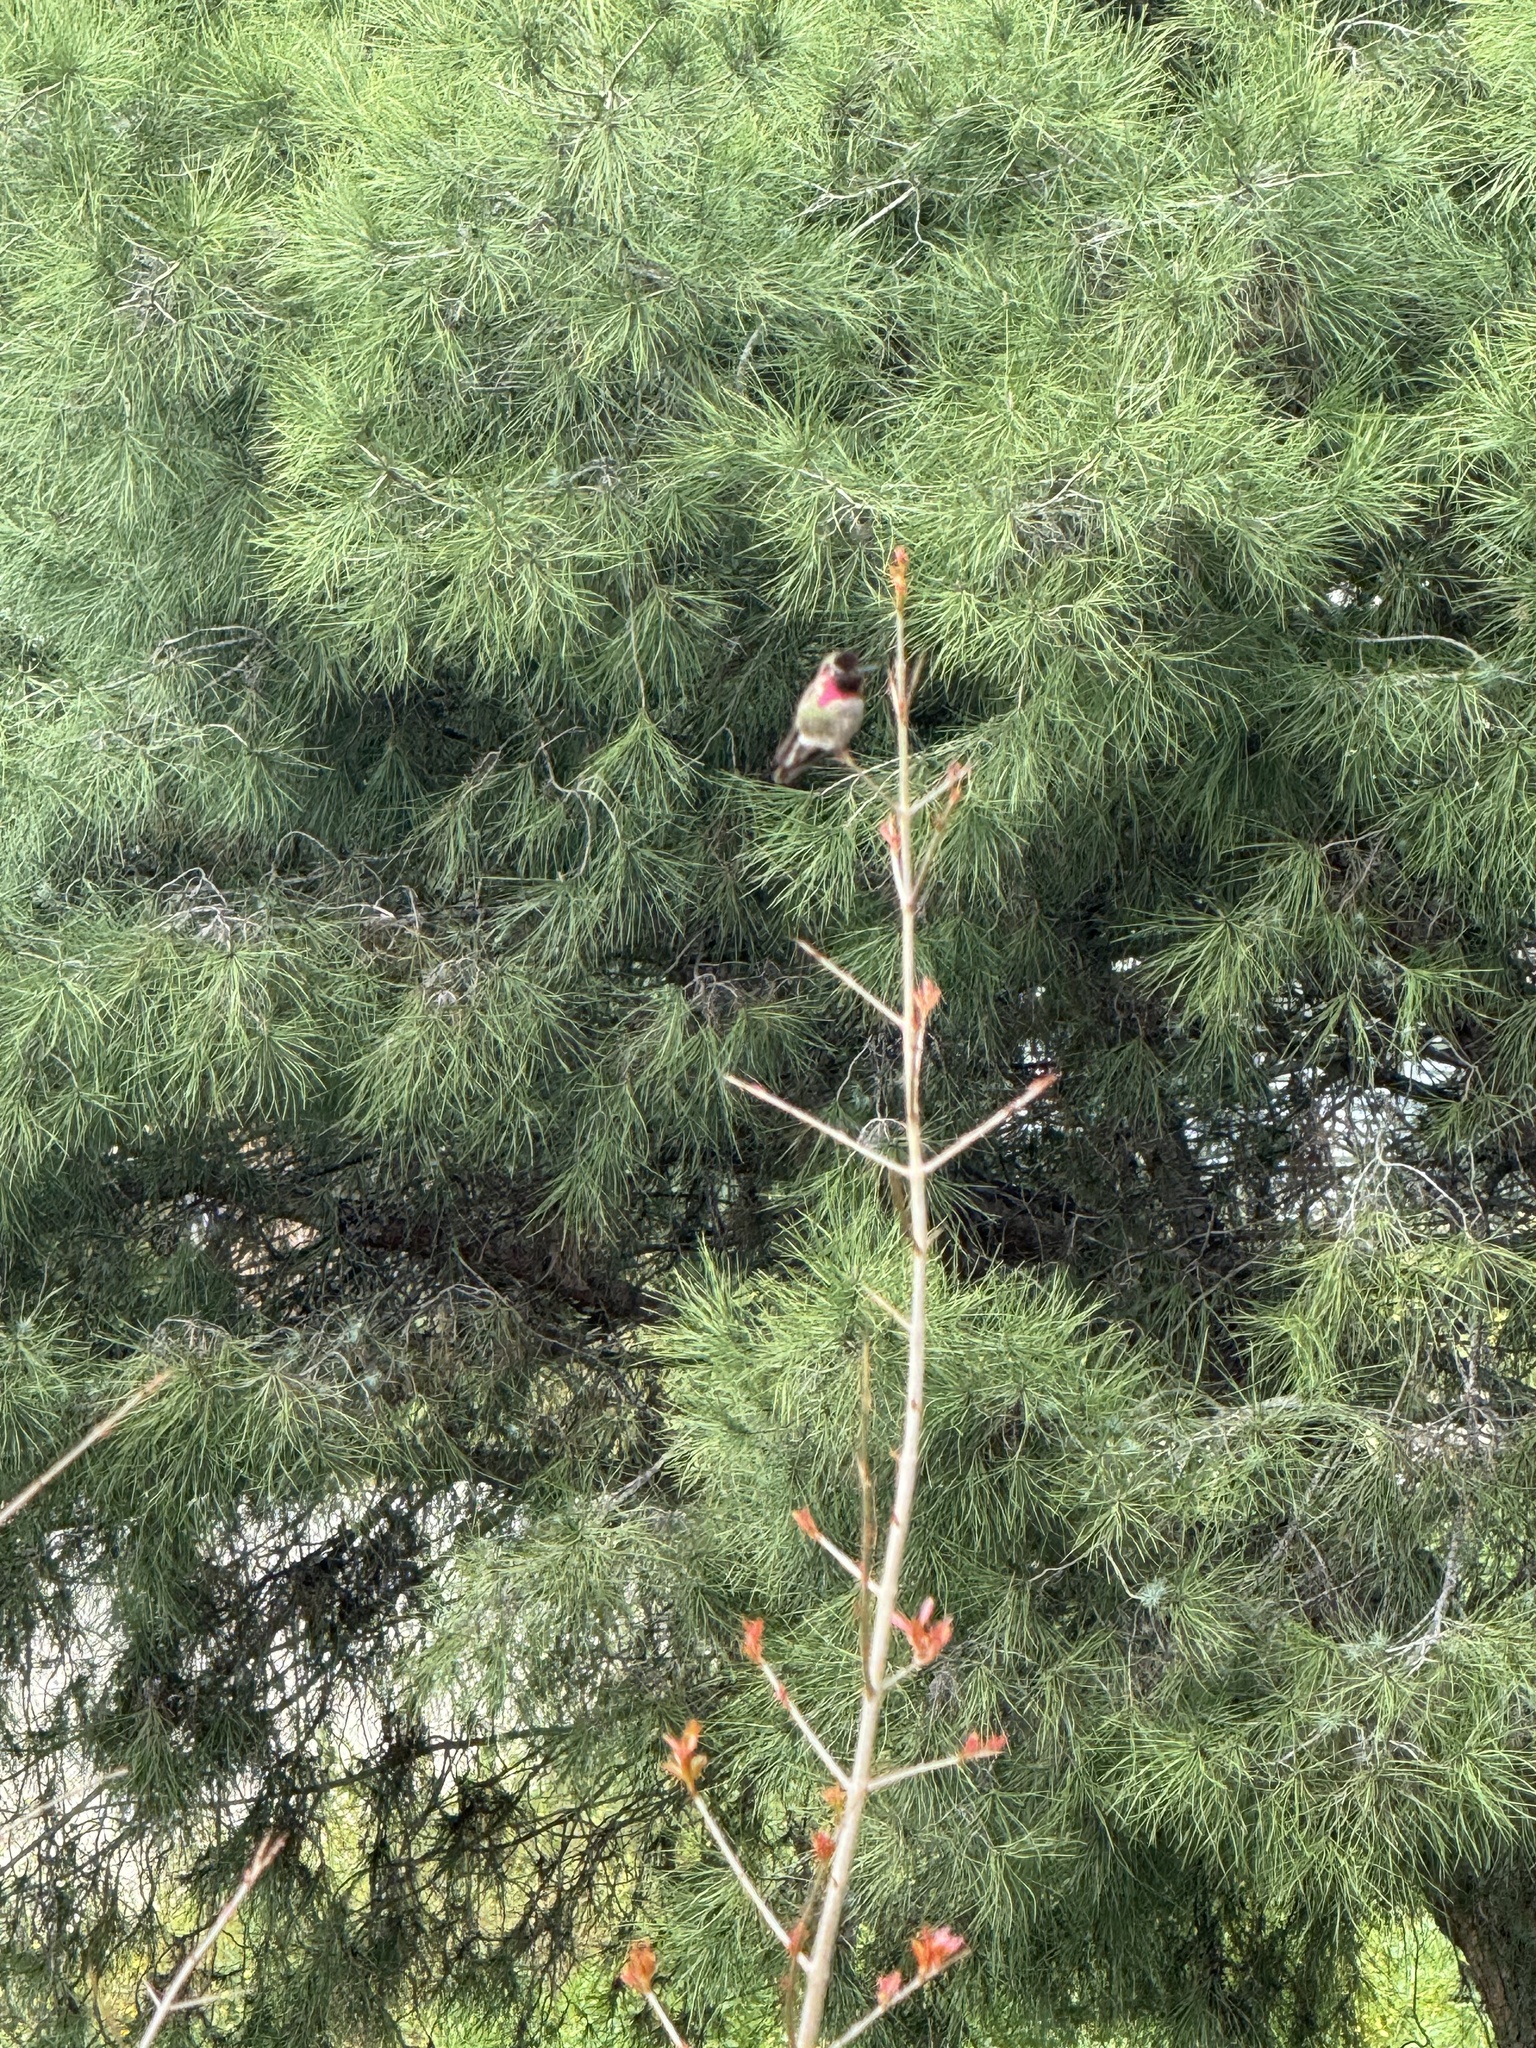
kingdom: Animalia
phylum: Chordata
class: Aves
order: Apodiformes
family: Trochilidae
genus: Calypte
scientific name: Calypte anna
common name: Anna's hummingbird
